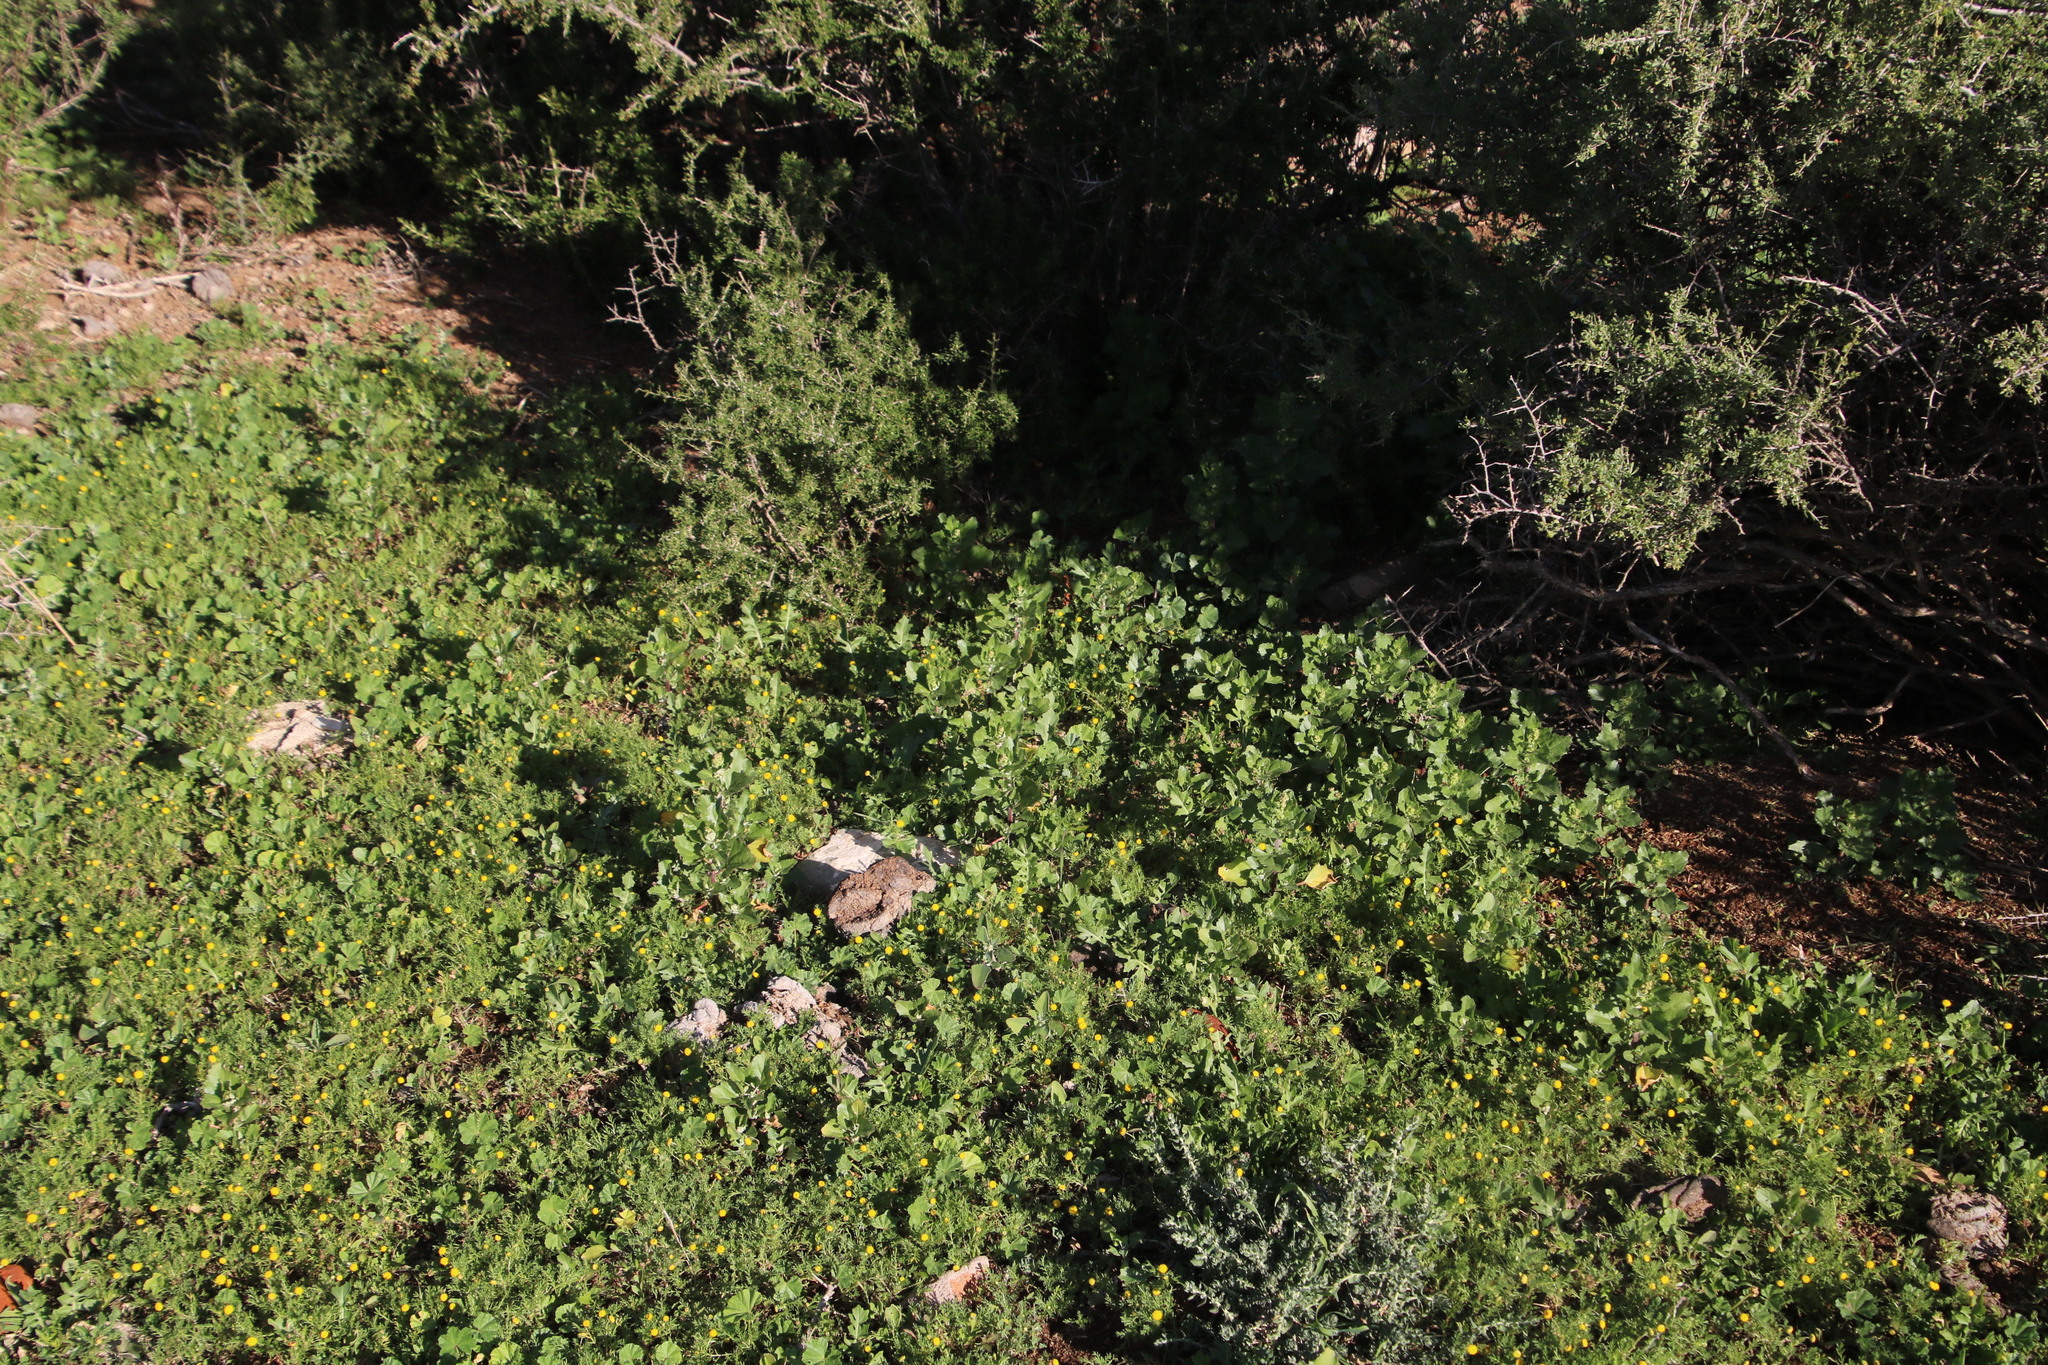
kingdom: Plantae
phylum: Tracheophyta
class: Magnoliopsida
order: Caryophyllales
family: Amaranthaceae
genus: Chenopodiastrum
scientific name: Chenopodiastrum murale
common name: Sowbane
